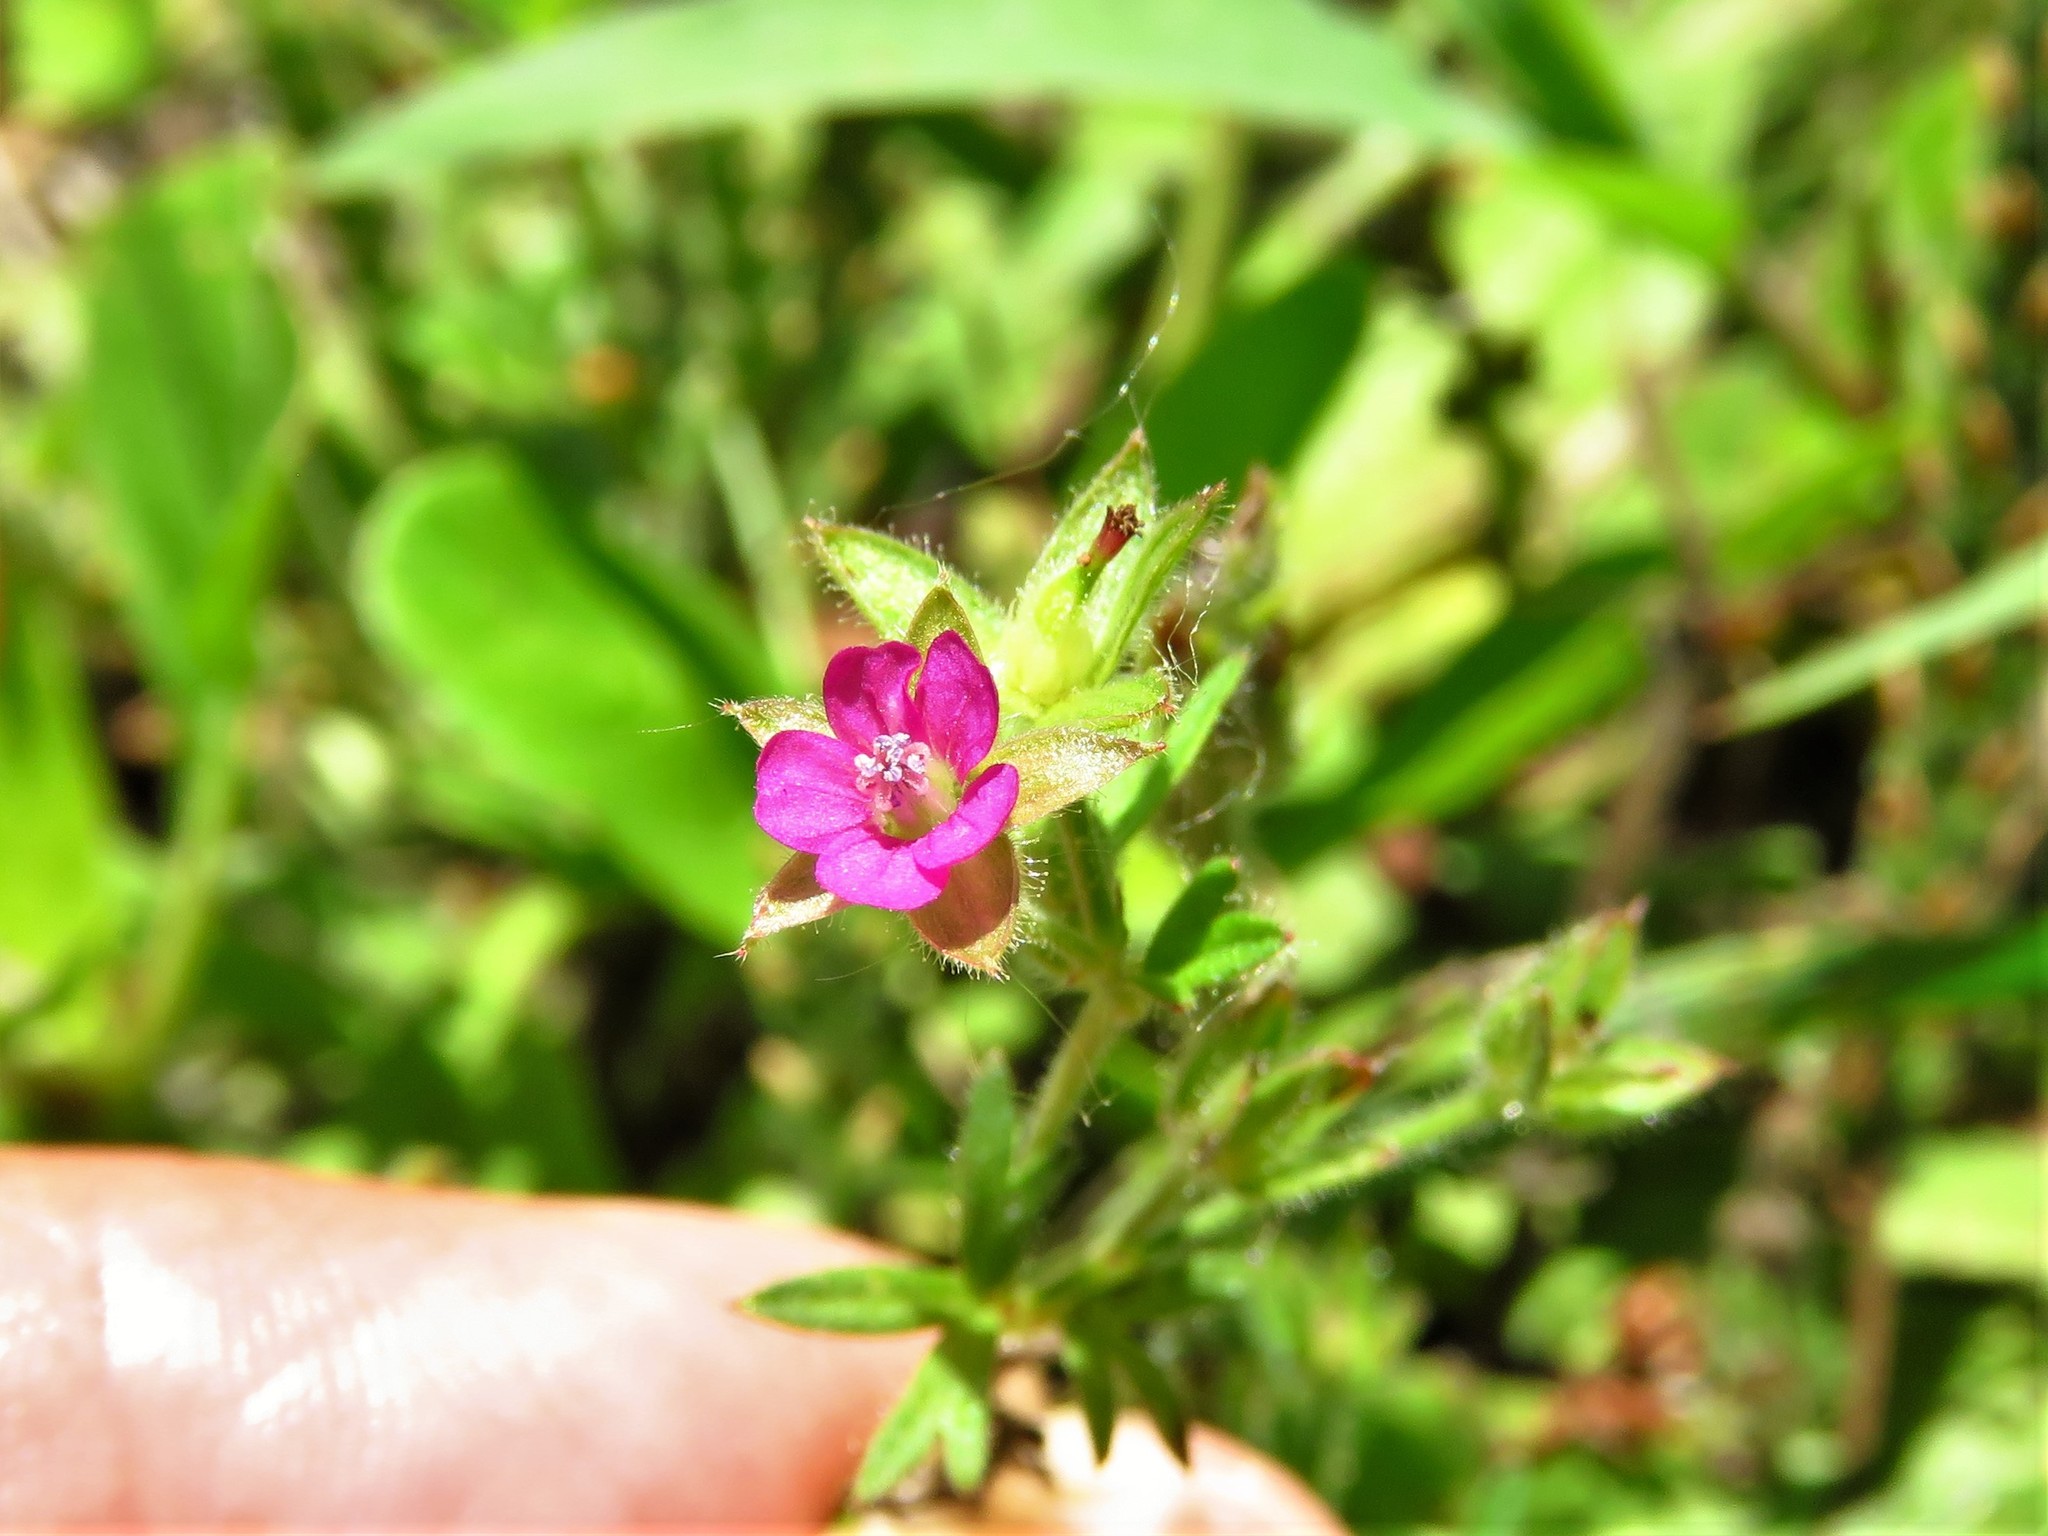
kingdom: Plantae
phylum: Tracheophyta
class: Magnoliopsida
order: Geraniales
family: Geraniaceae
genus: Geranium
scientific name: Geranium dissectum
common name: Cut-leaved crane's-bill
